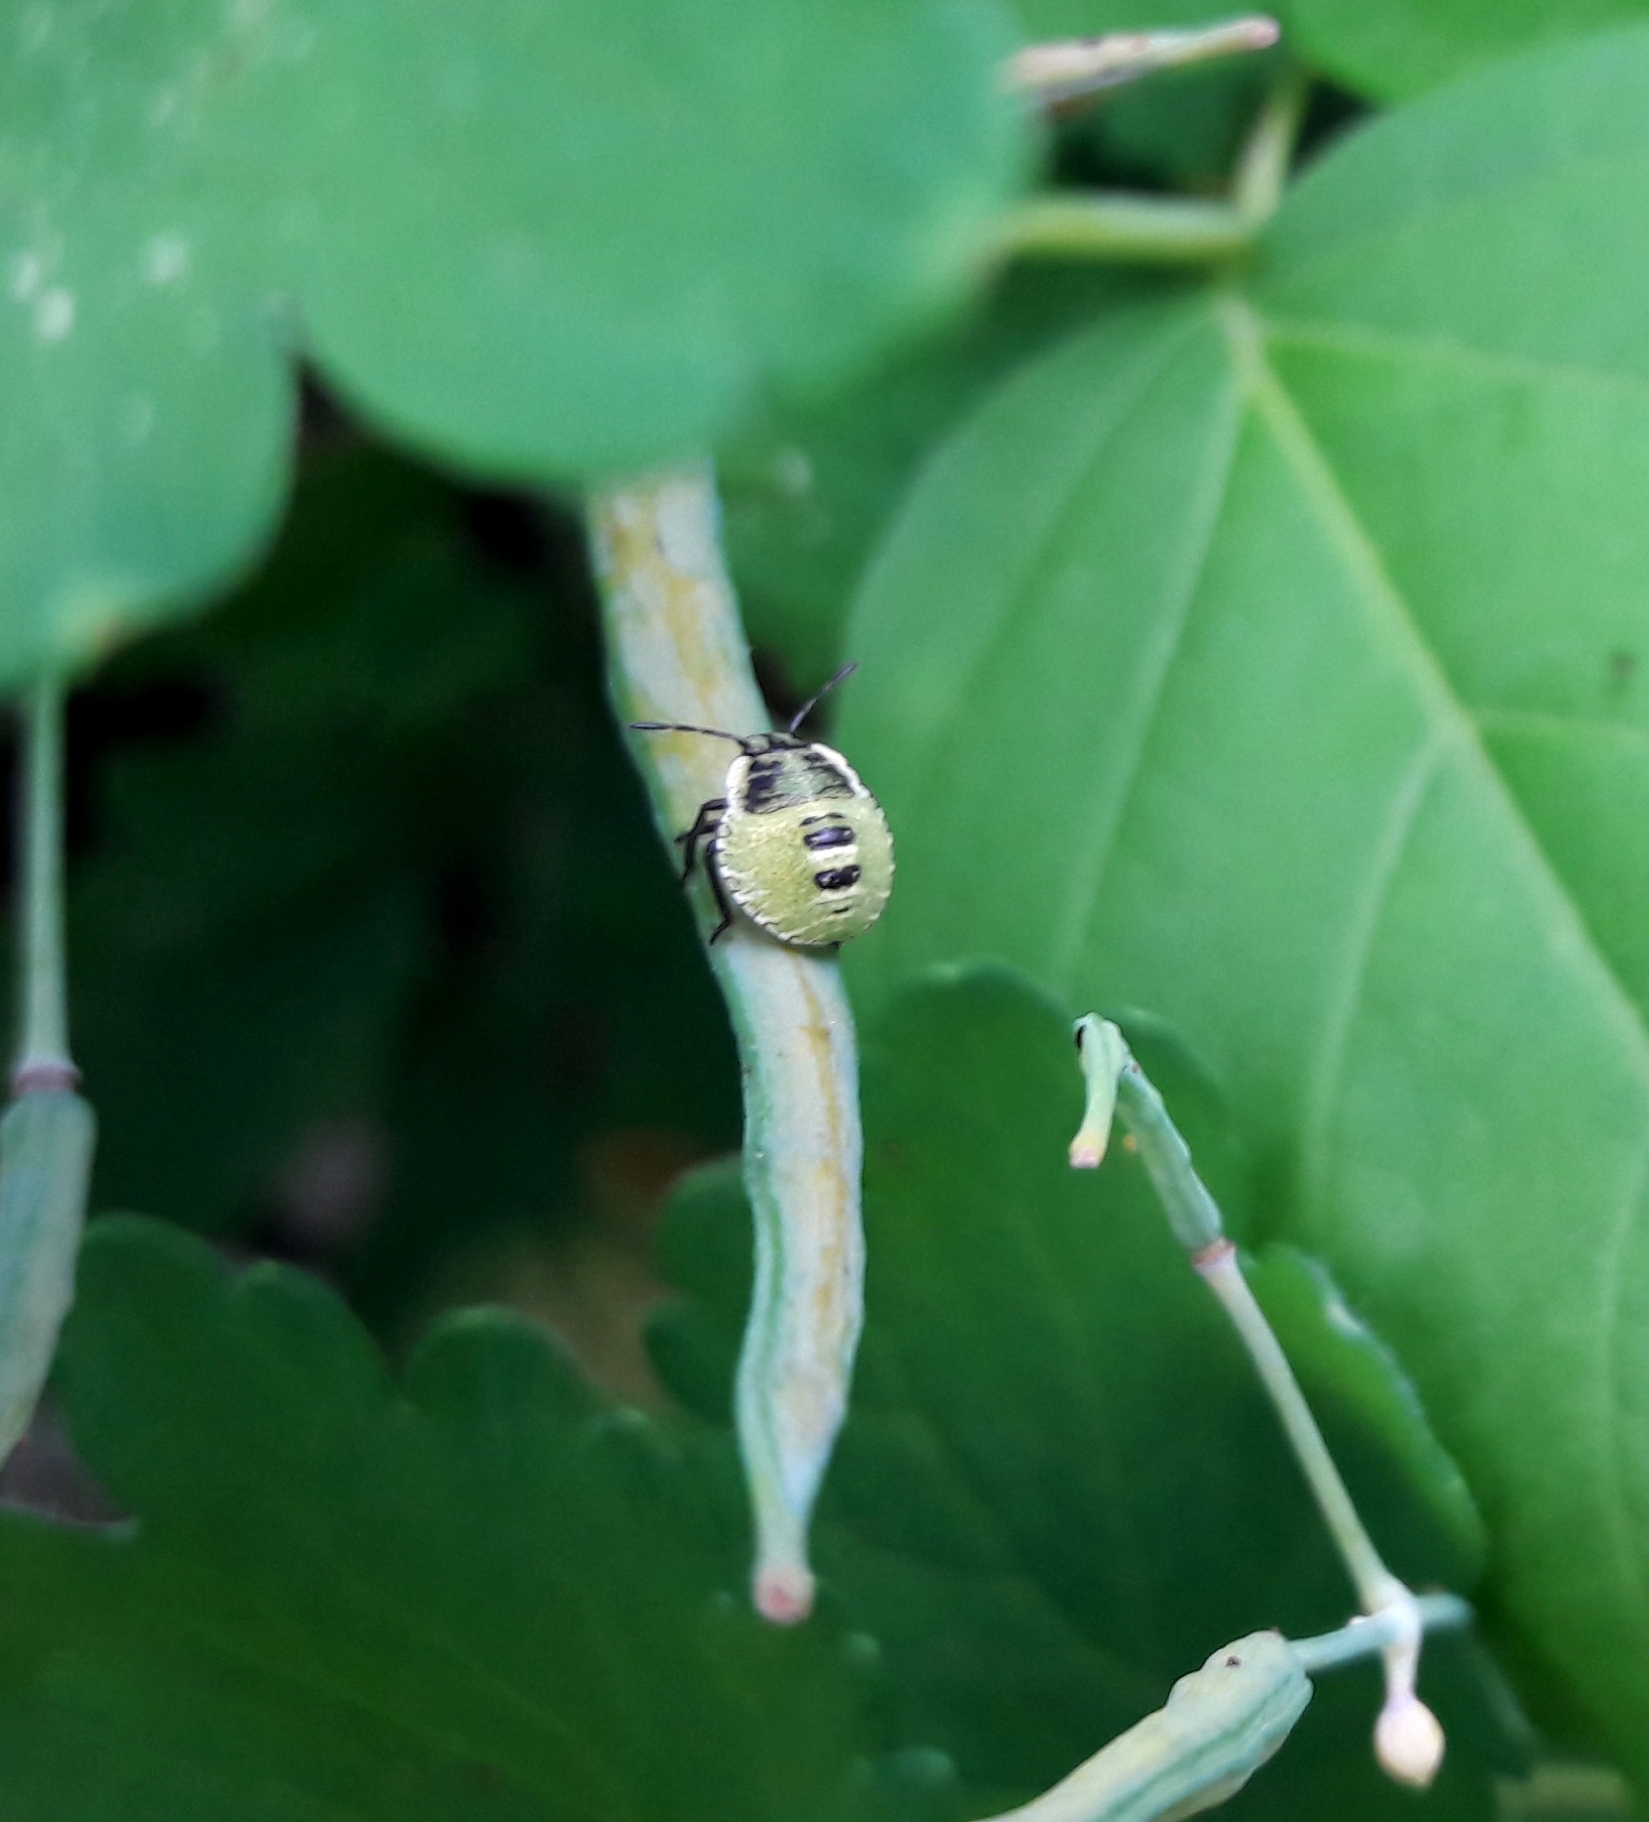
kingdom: Animalia
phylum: Arthropoda
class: Insecta
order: Hemiptera
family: Pentatomidae
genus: Palomena
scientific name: Palomena prasina
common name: Green shieldbug
